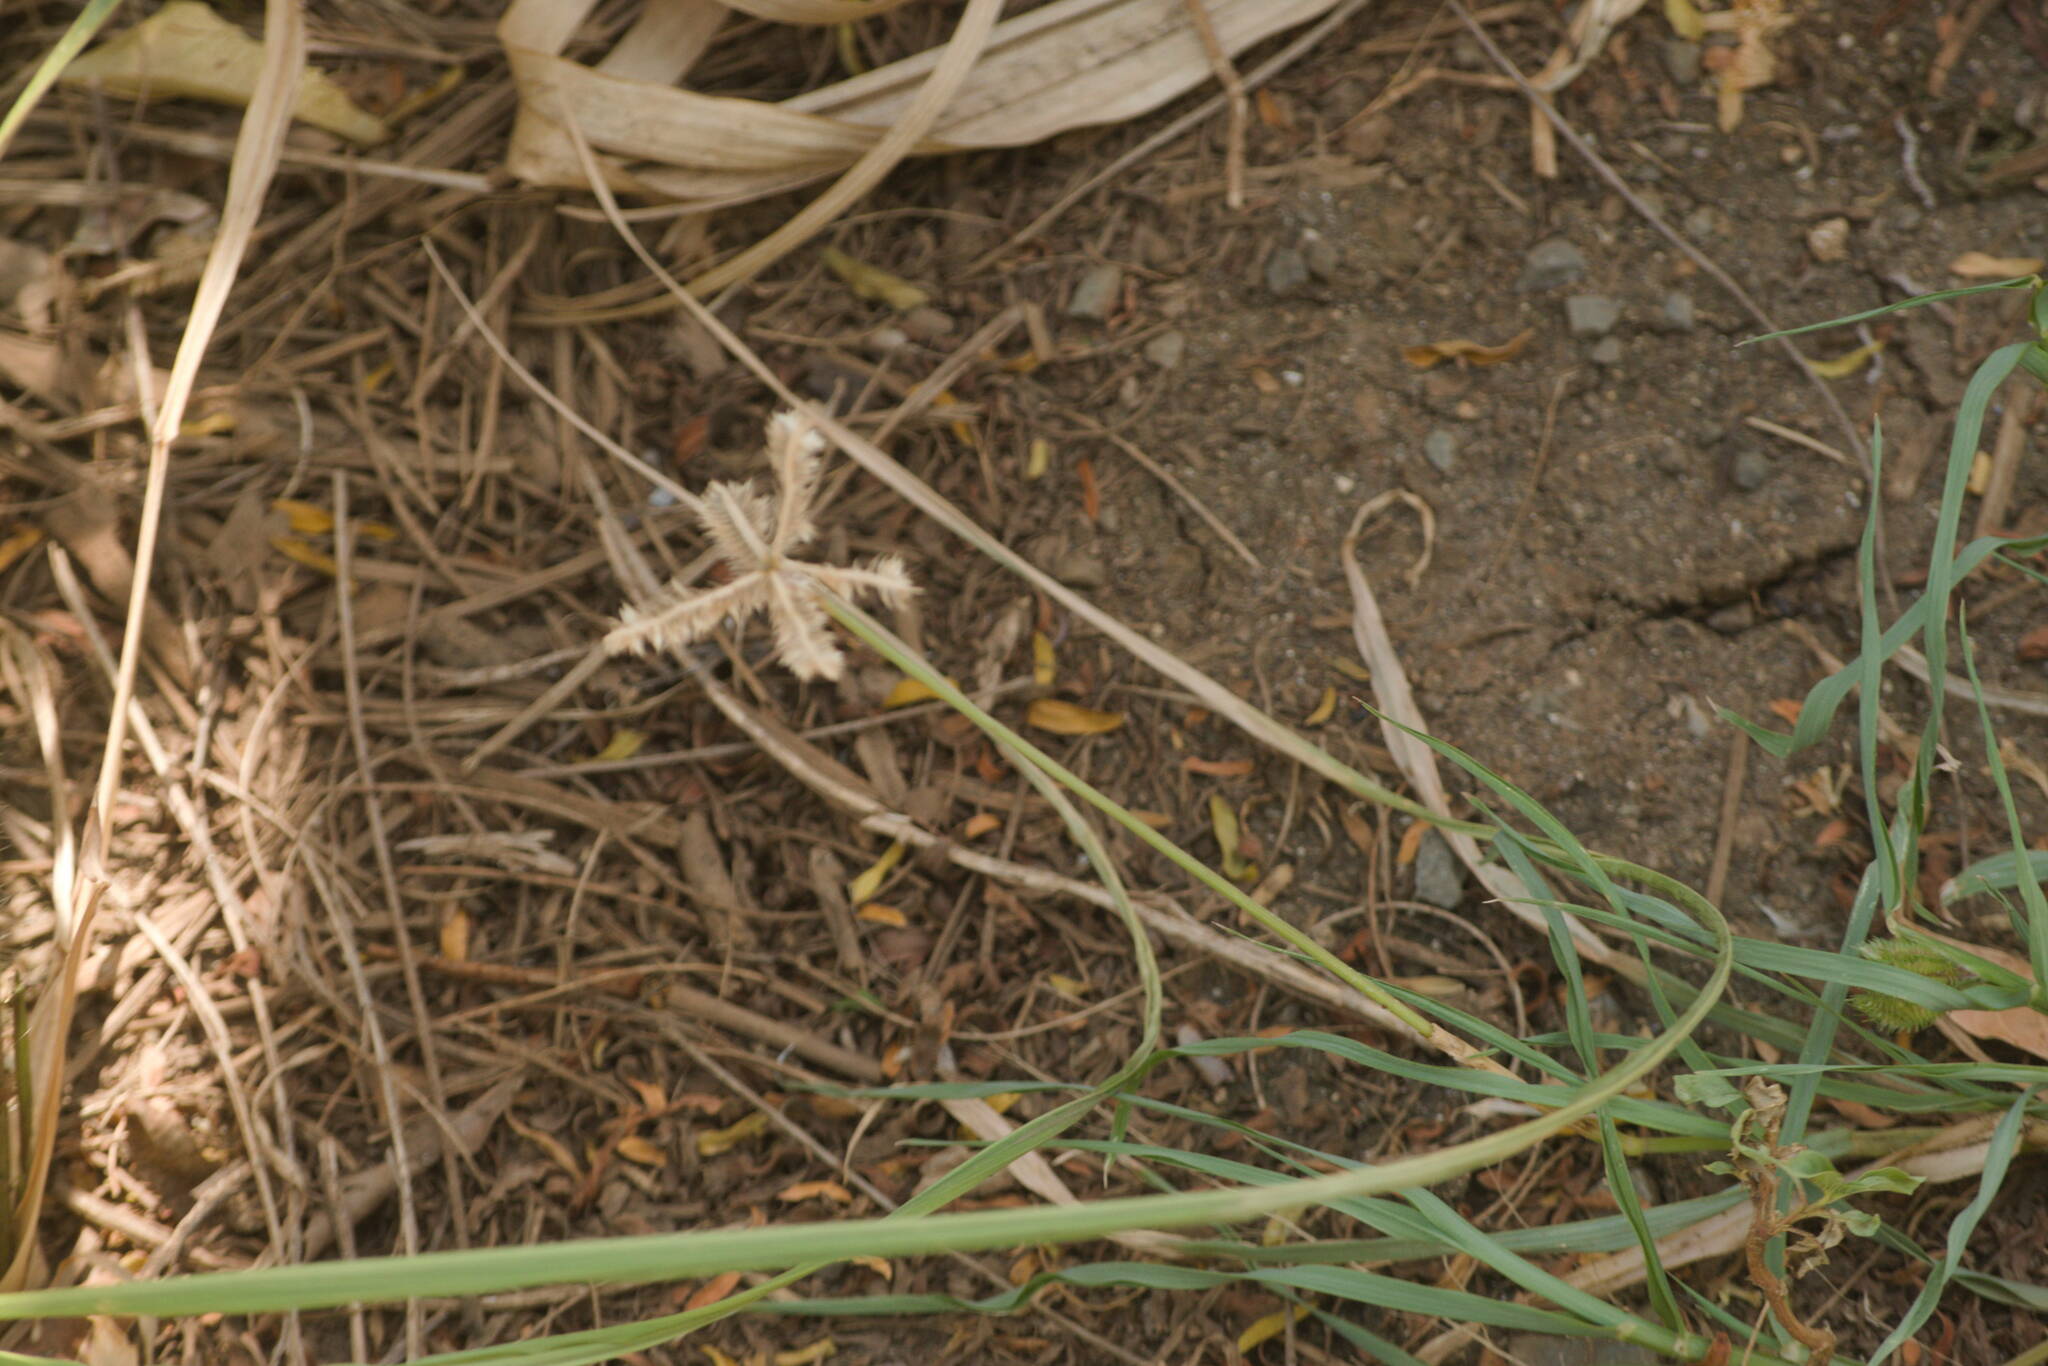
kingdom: Plantae
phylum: Tracheophyta
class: Liliopsida
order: Poales
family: Poaceae
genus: Dactyloctenium
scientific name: Dactyloctenium aegyptium
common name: Egyptian grass
